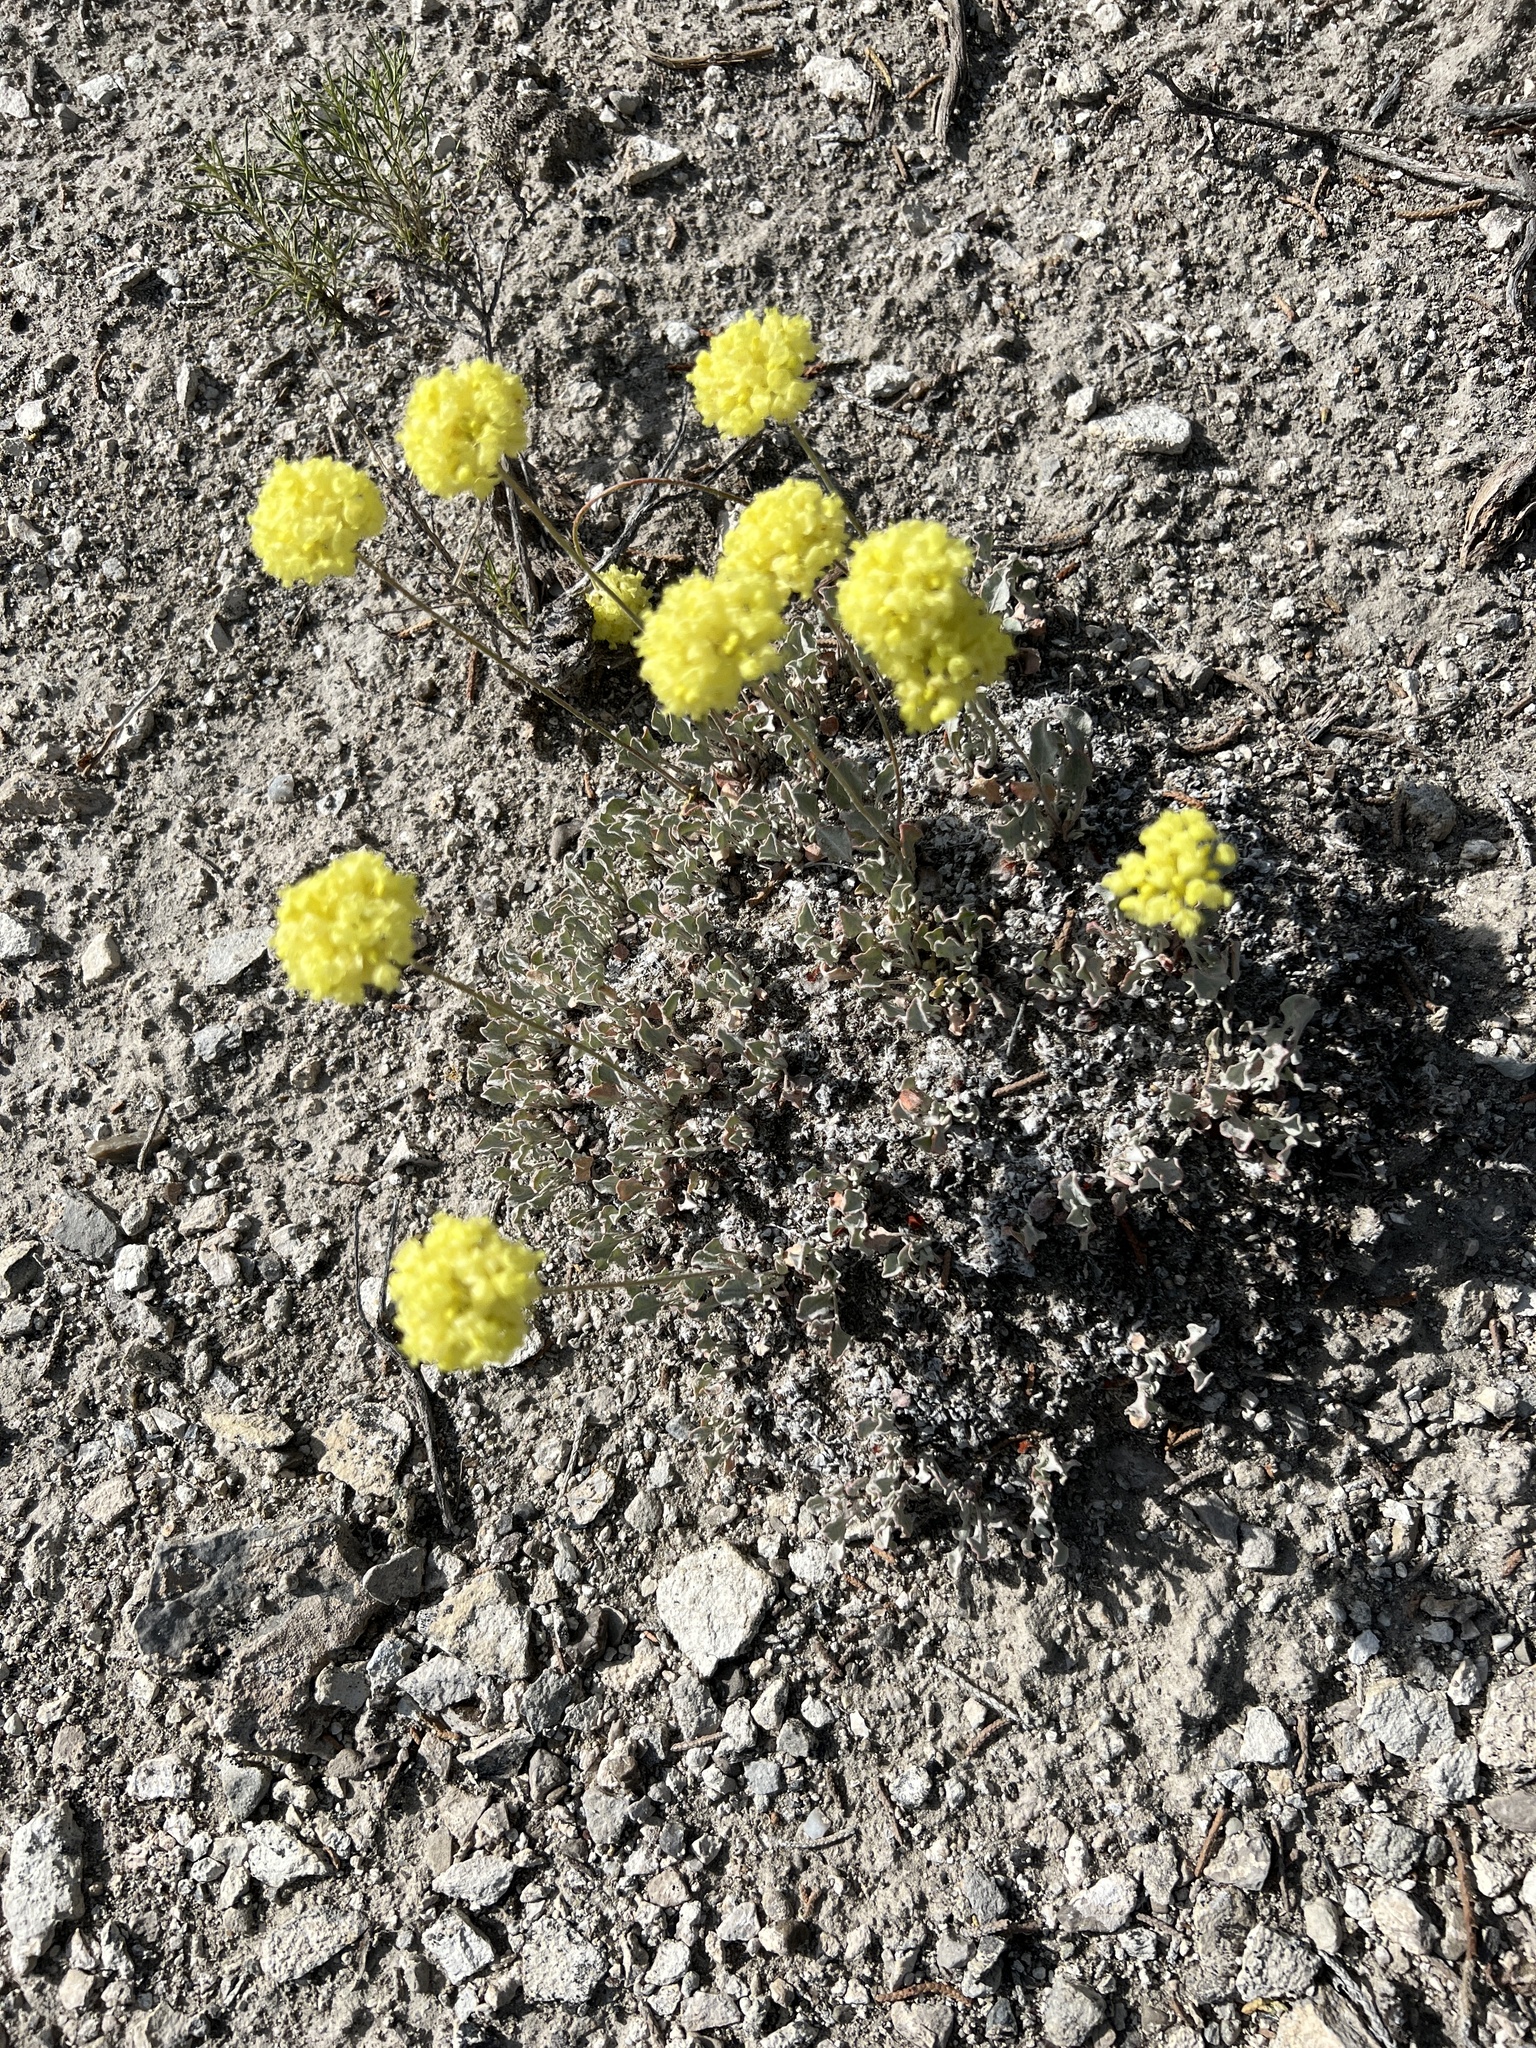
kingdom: Plantae
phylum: Tracheophyta
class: Magnoliopsida
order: Caryophyllales
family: Polygonaceae
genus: Eriogonum
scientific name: Eriogonum ovalifolium
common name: Cushion buckwheat
